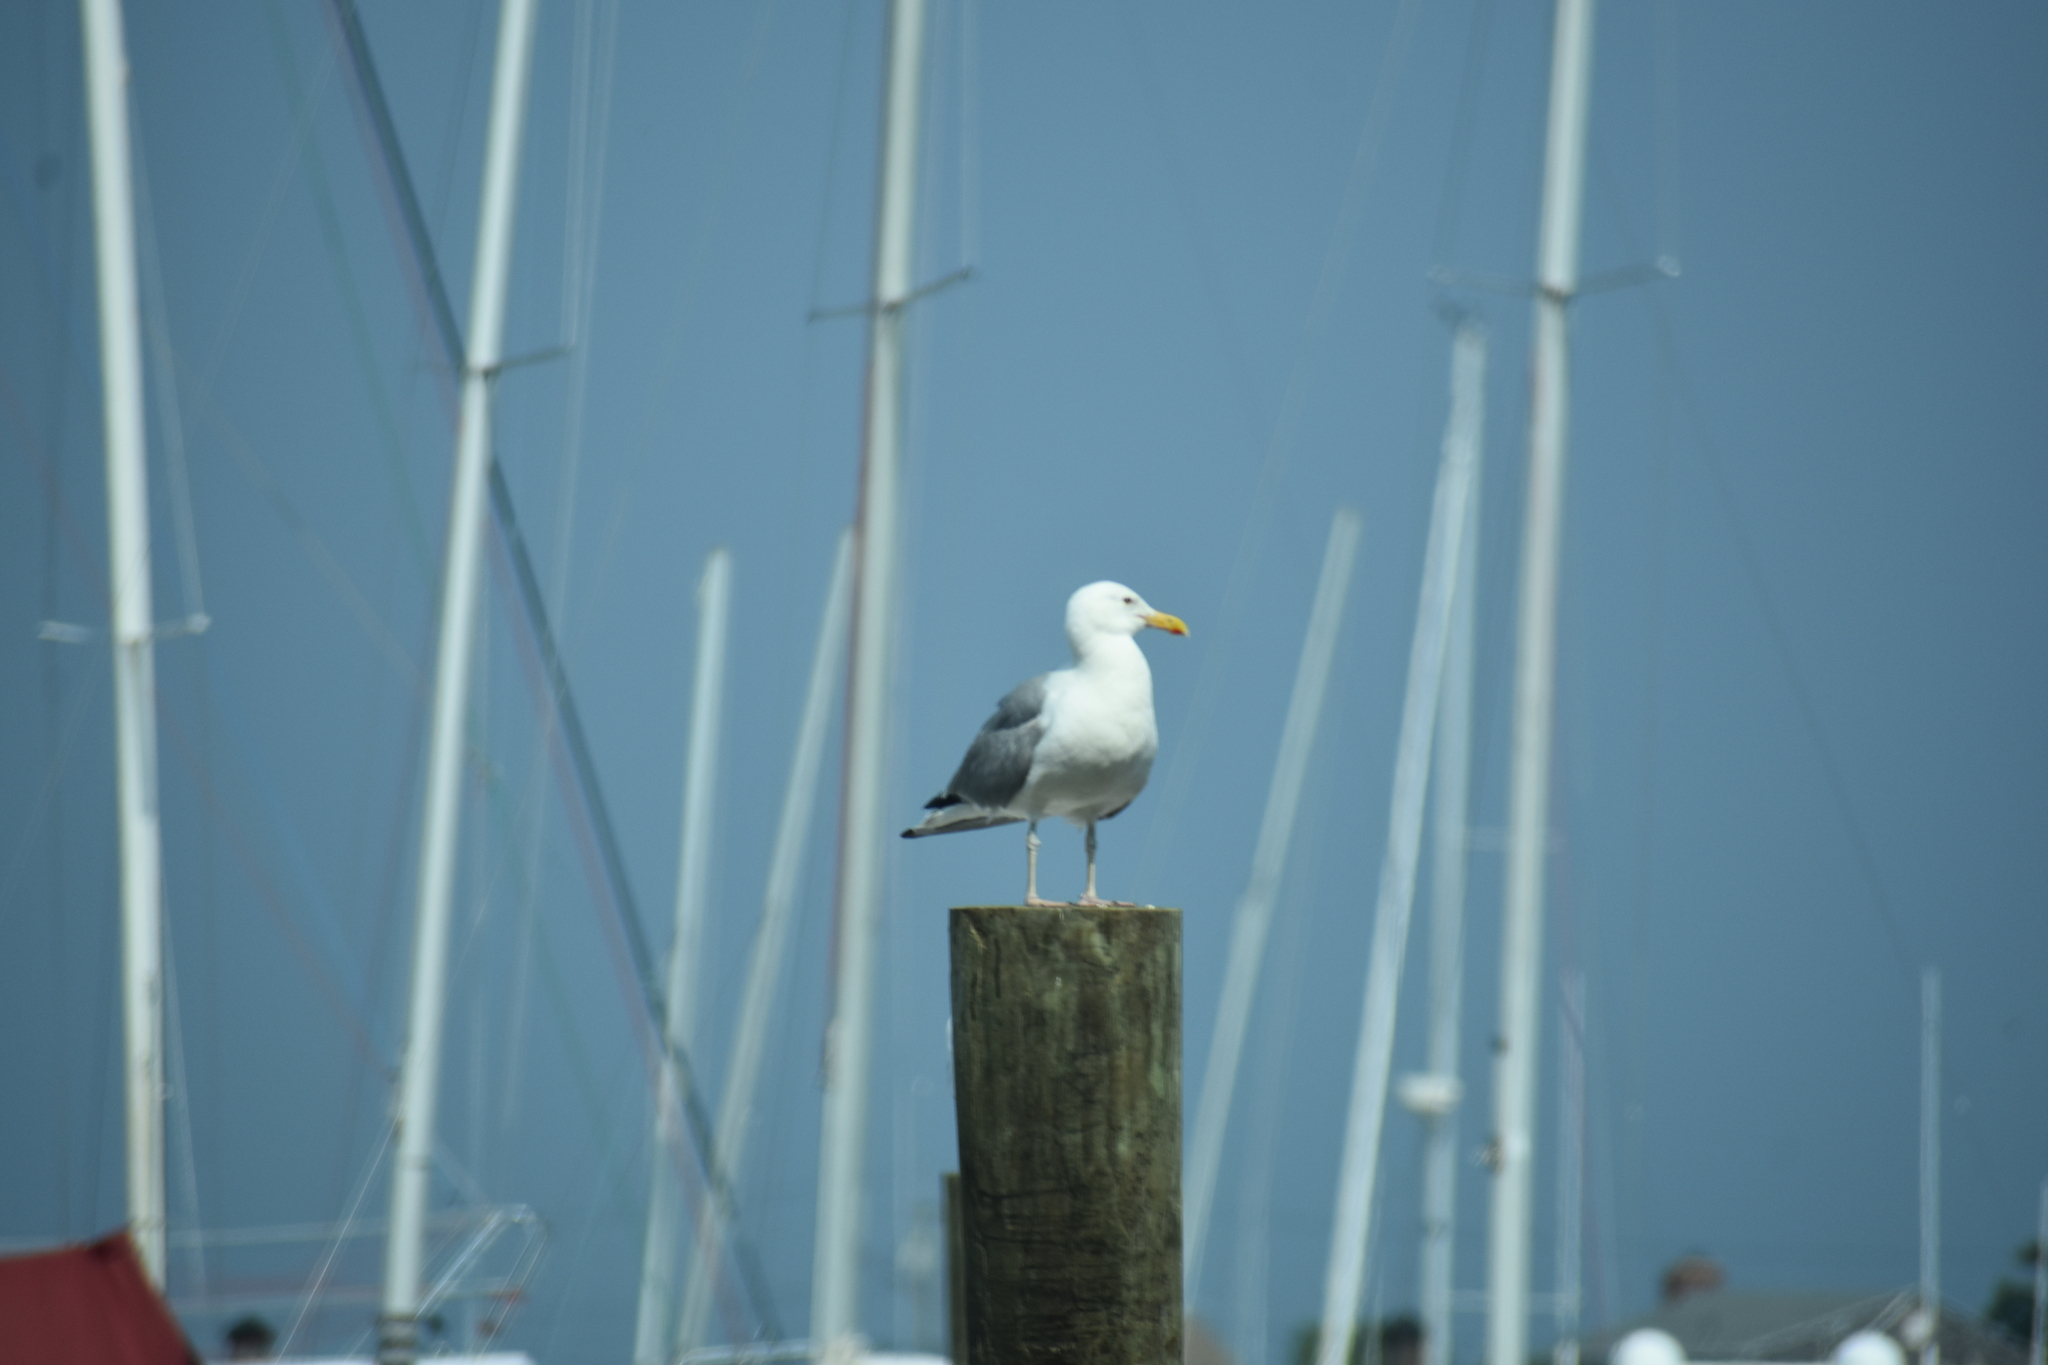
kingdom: Animalia
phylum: Chordata
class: Aves
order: Charadriiformes
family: Laridae
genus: Larus
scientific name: Larus argentatus
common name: Herring gull
